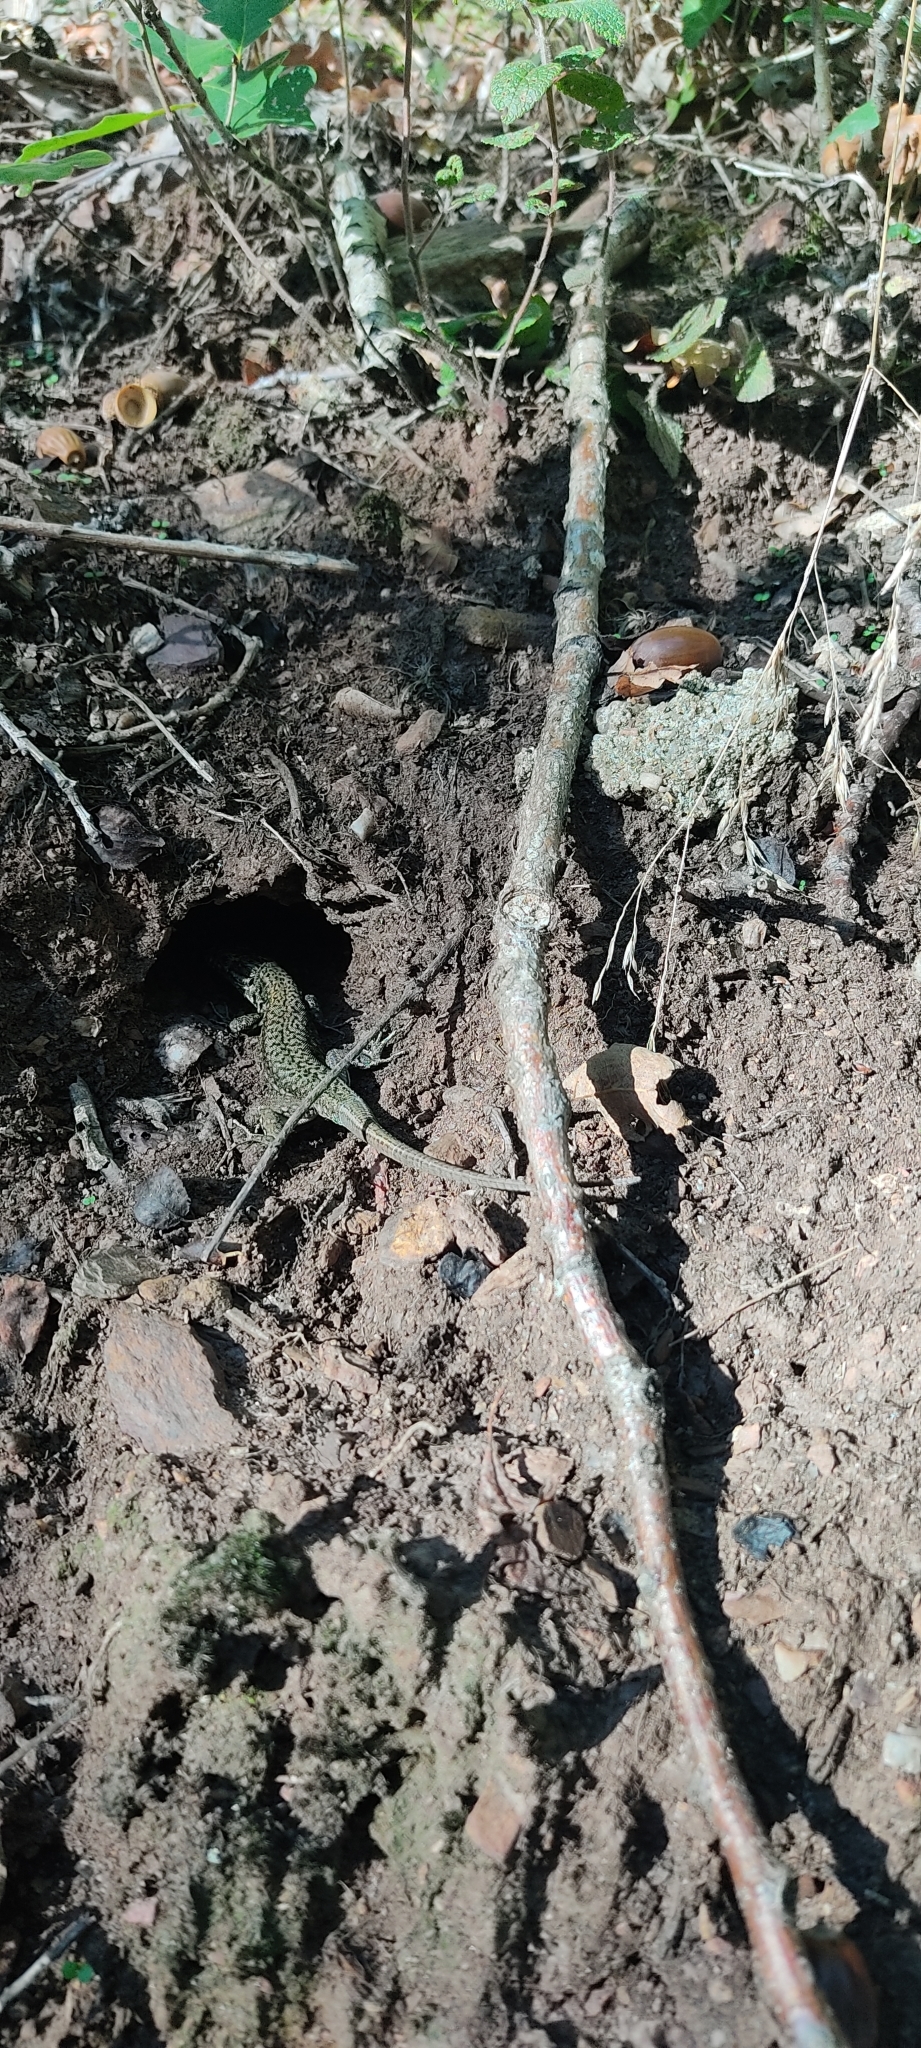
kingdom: Animalia
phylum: Chordata
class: Squamata
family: Lacertidae
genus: Podarcis
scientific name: Podarcis muralis
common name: Common wall lizard
